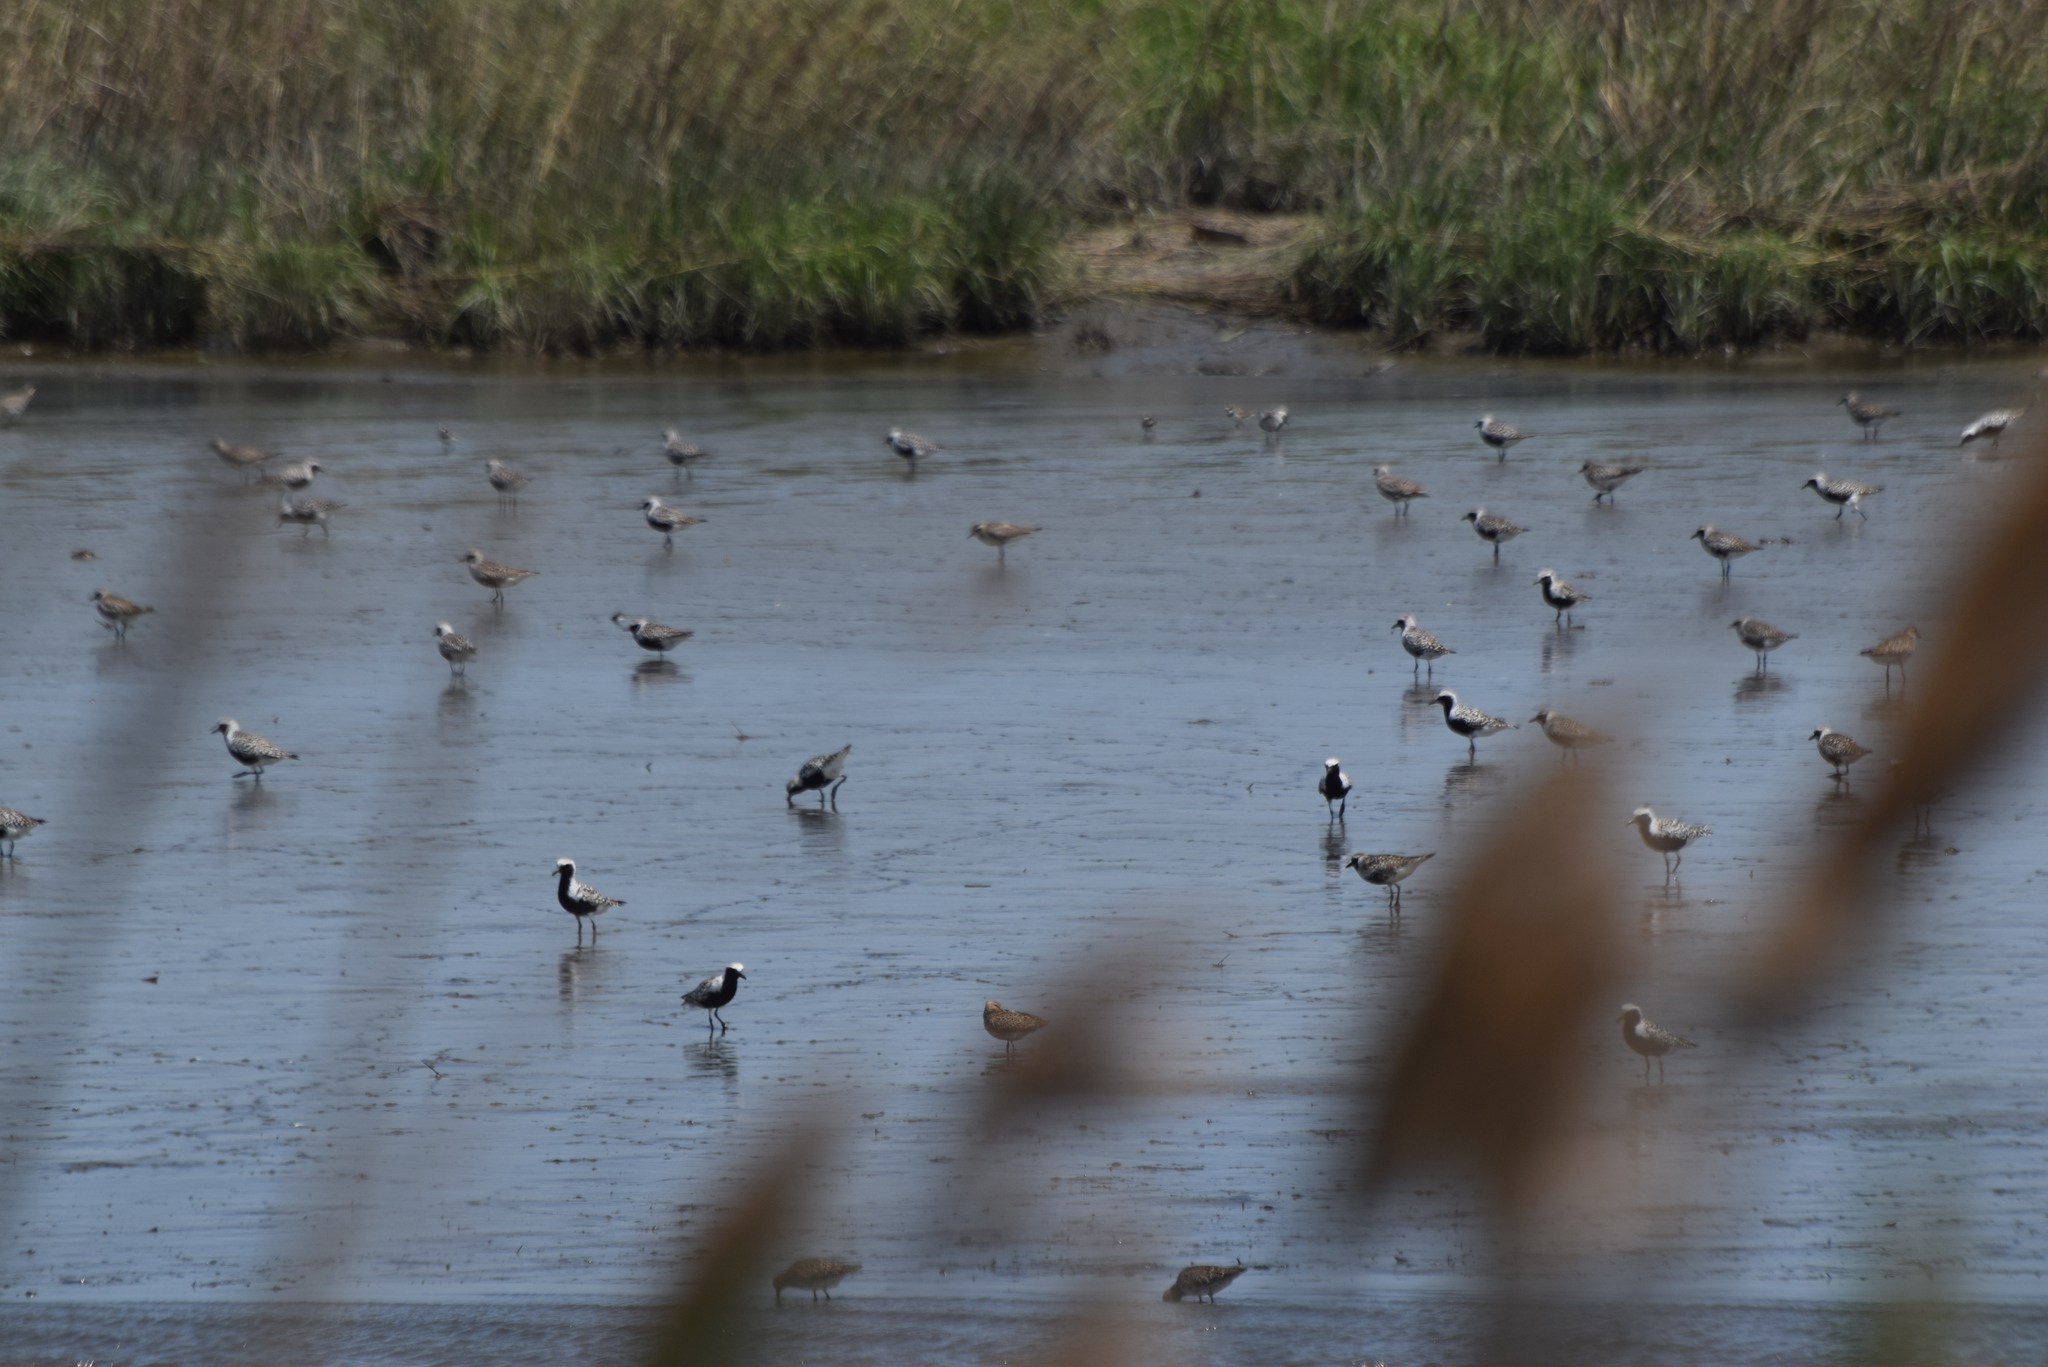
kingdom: Animalia
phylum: Chordata
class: Aves
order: Charadriiformes
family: Charadriidae
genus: Pluvialis
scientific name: Pluvialis squatarola
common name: Grey plover
